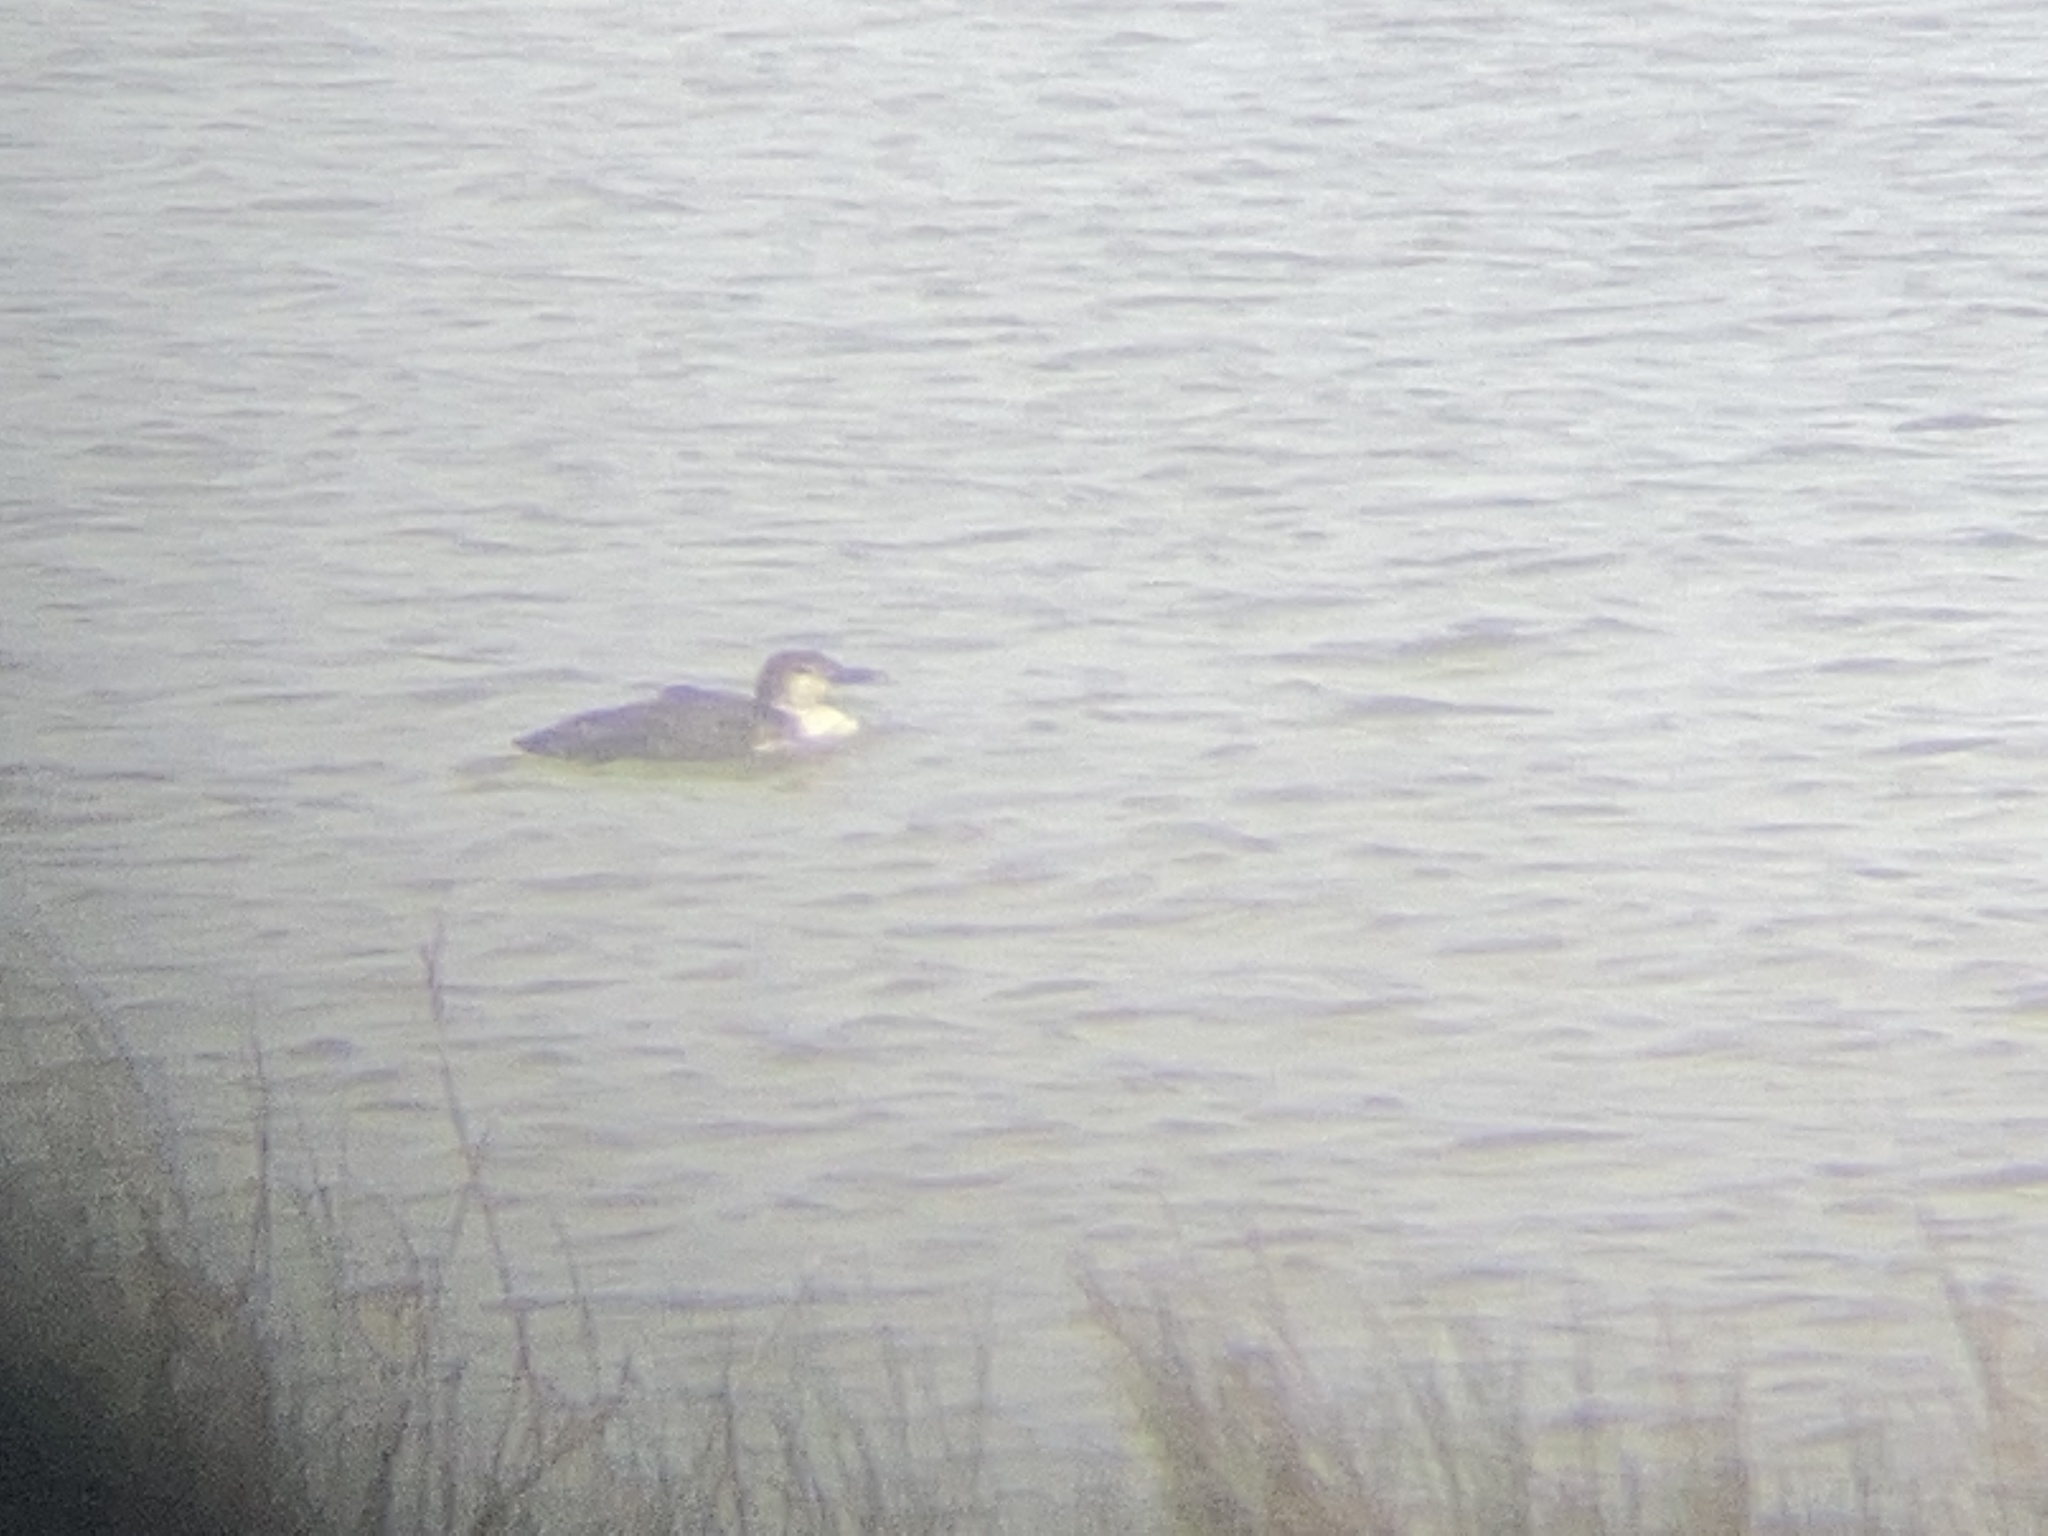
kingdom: Animalia
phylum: Chordata
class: Aves
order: Gaviiformes
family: Gaviidae
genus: Gavia
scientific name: Gavia immer
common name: Common loon
